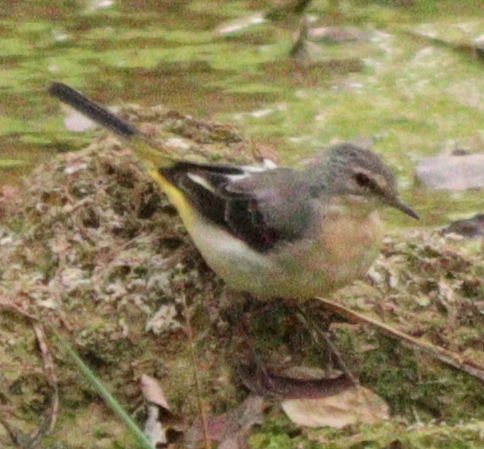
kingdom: Animalia
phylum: Chordata
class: Aves
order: Passeriformes
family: Motacillidae
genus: Motacilla
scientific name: Motacilla cinerea
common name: Grey wagtail
